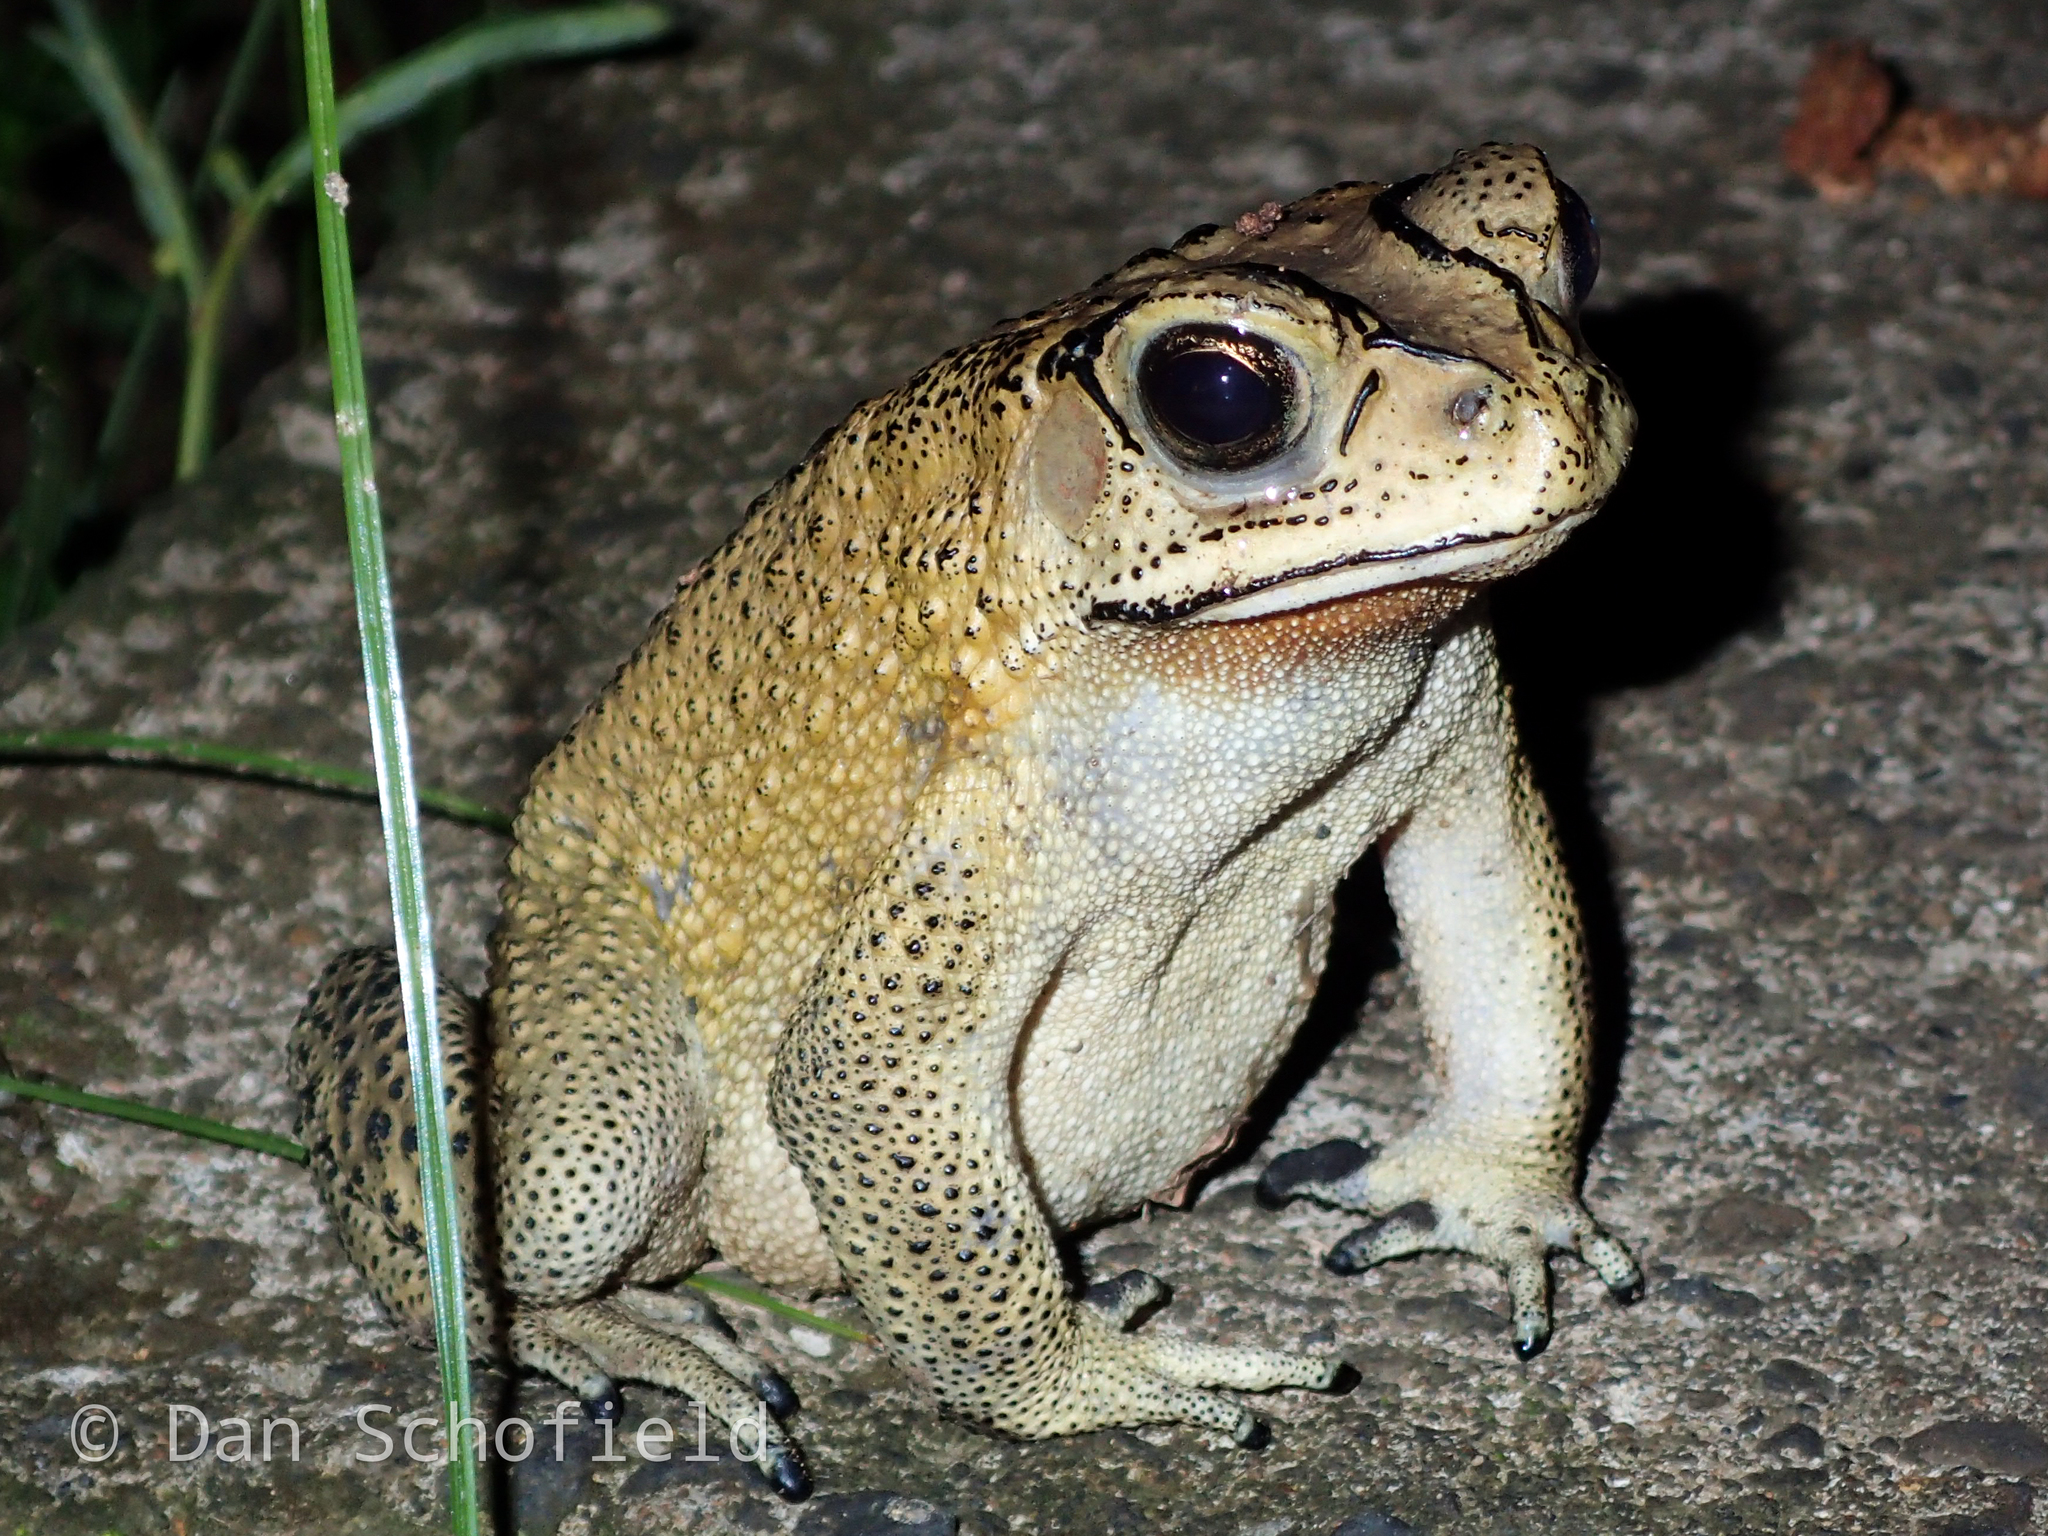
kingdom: Animalia
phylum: Chordata
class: Amphibia
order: Anura
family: Bufonidae
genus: Duttaphrynus
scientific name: Duttaphrynus melanostictus
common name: Common sunda toad
